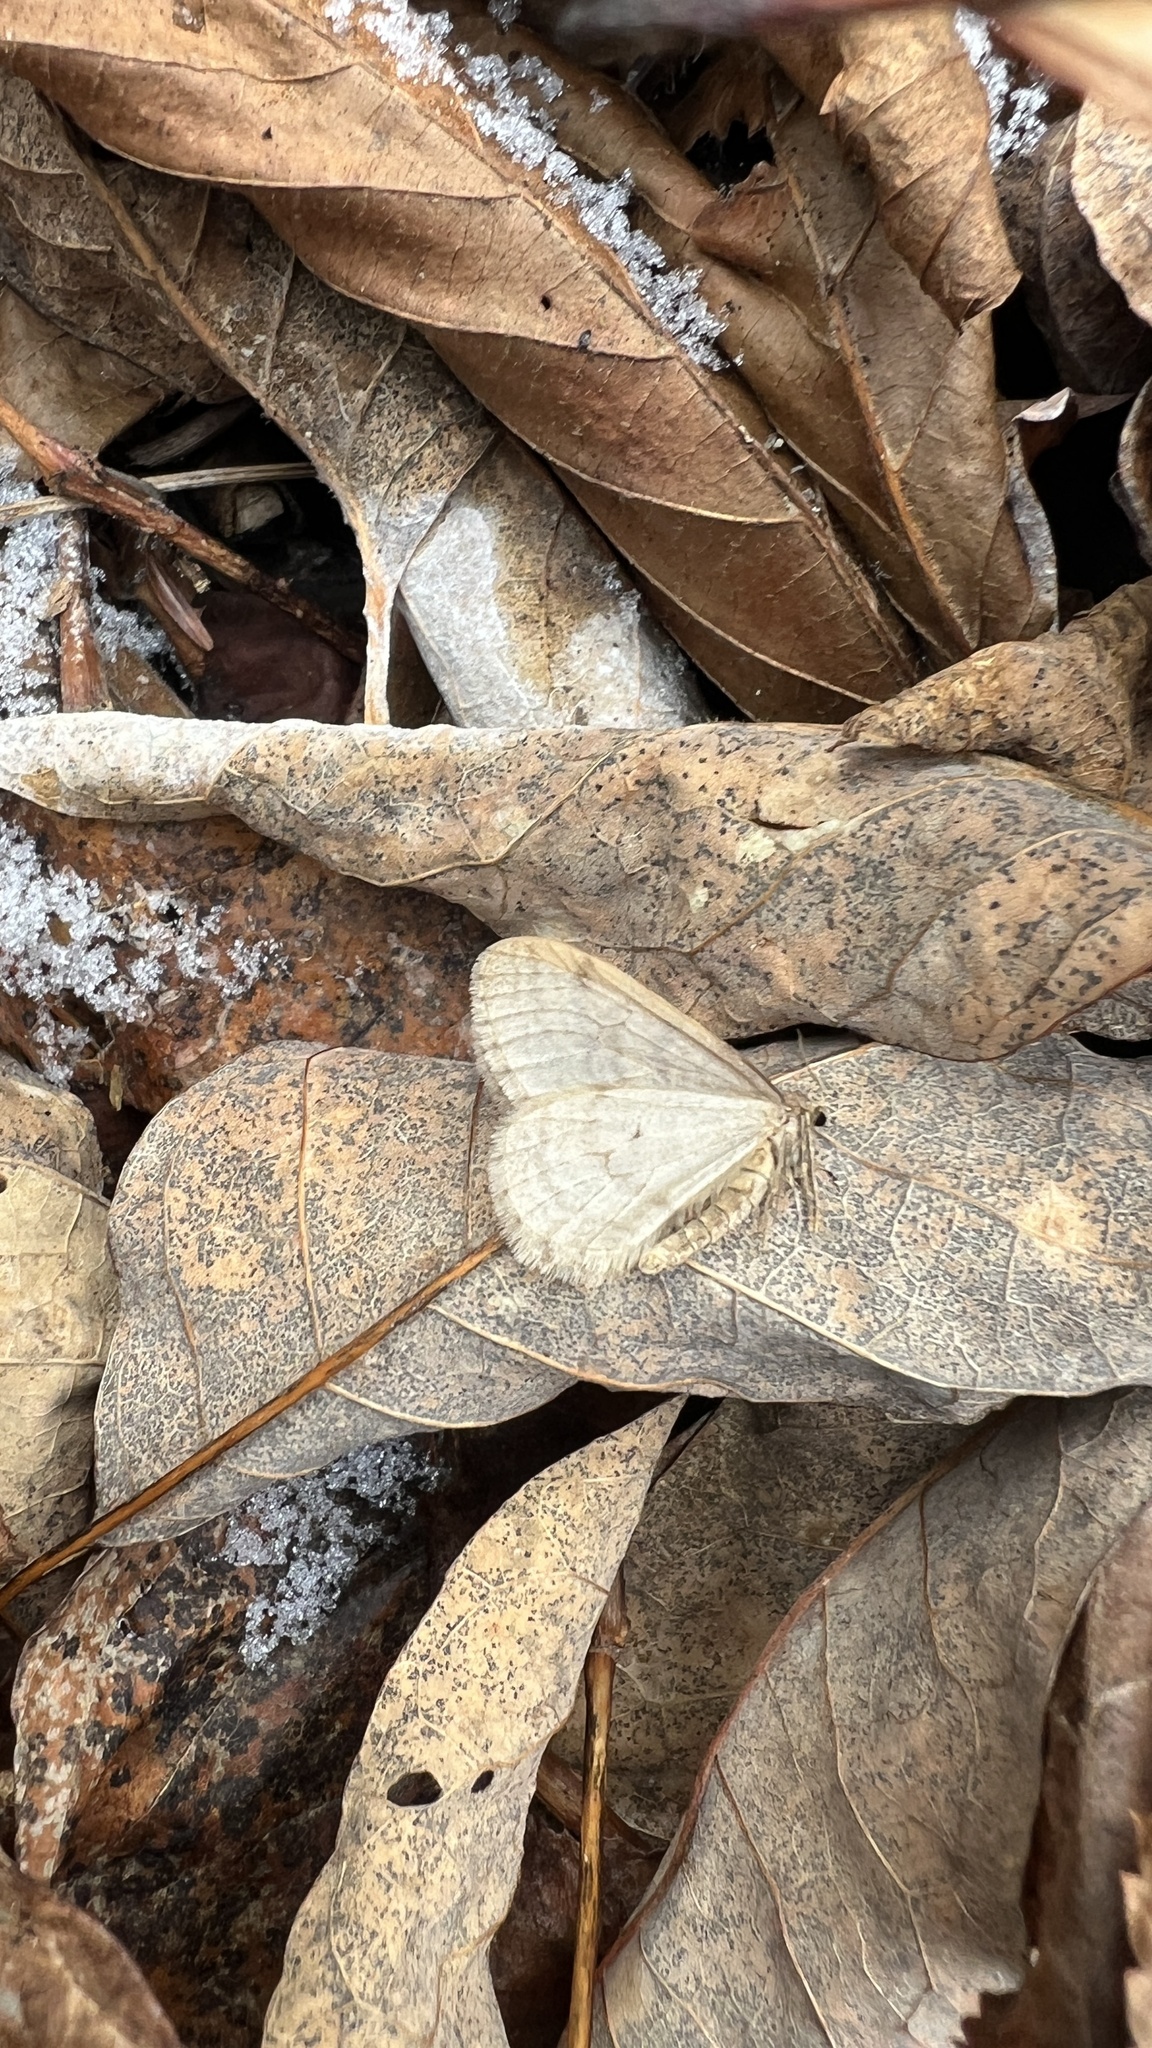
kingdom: Animalia
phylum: Arthropoda
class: Insecta
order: Lepidoptera
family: Geometridae
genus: Operophtera
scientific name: Operophtera bruceata
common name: Bruce spanworm
